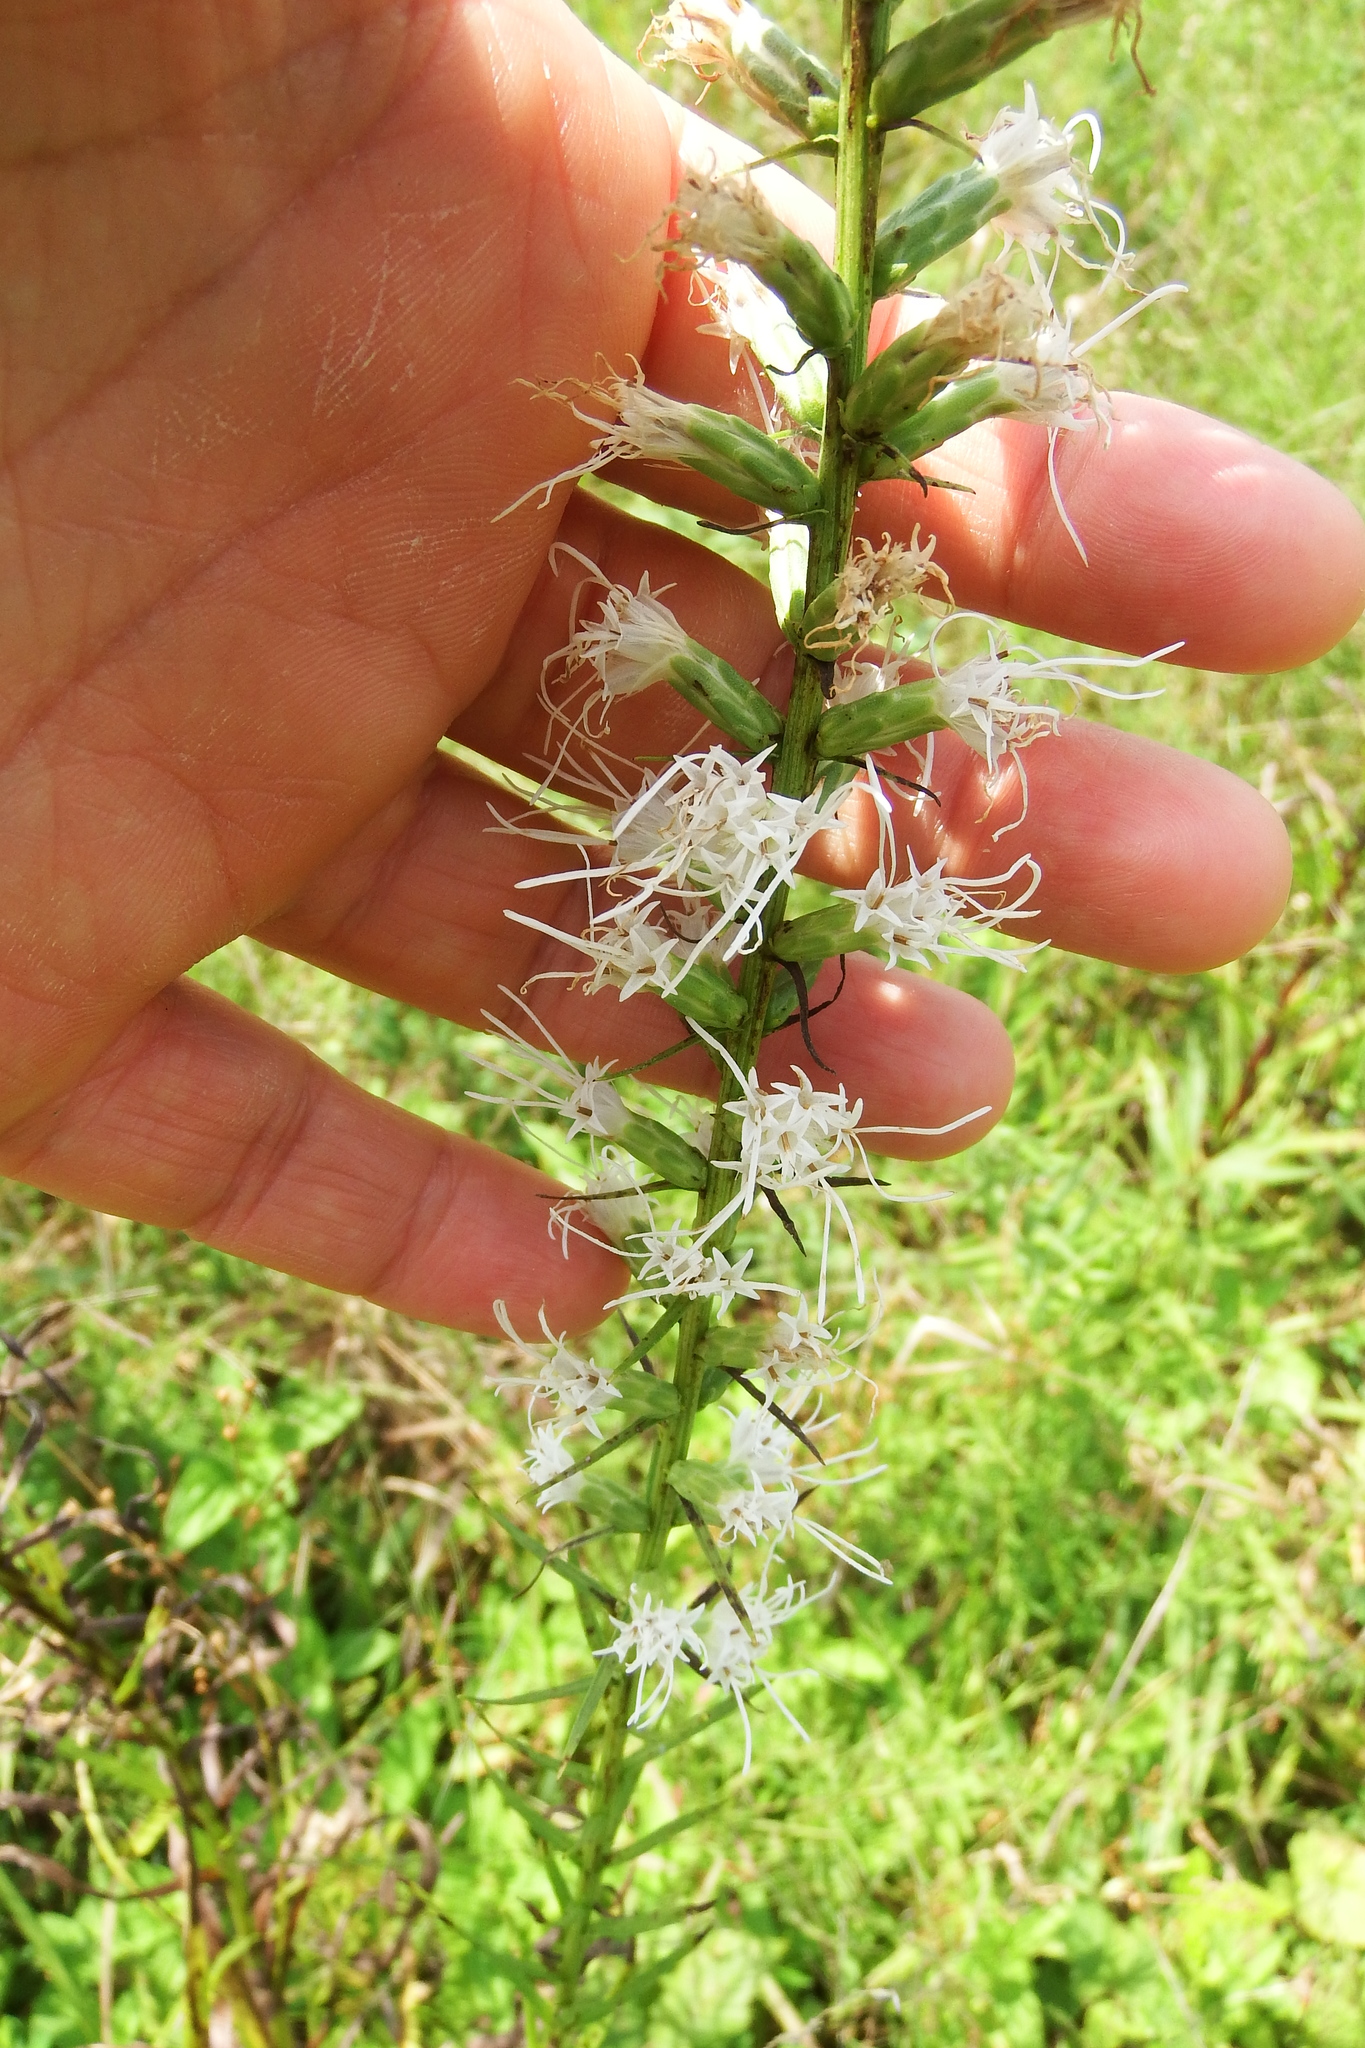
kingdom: Plantae
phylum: Tracheophyta
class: Magnoliopsida
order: Asterales
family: Asteraceae
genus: Liatris
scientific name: Liatris spicata
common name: Florist gayfeather
